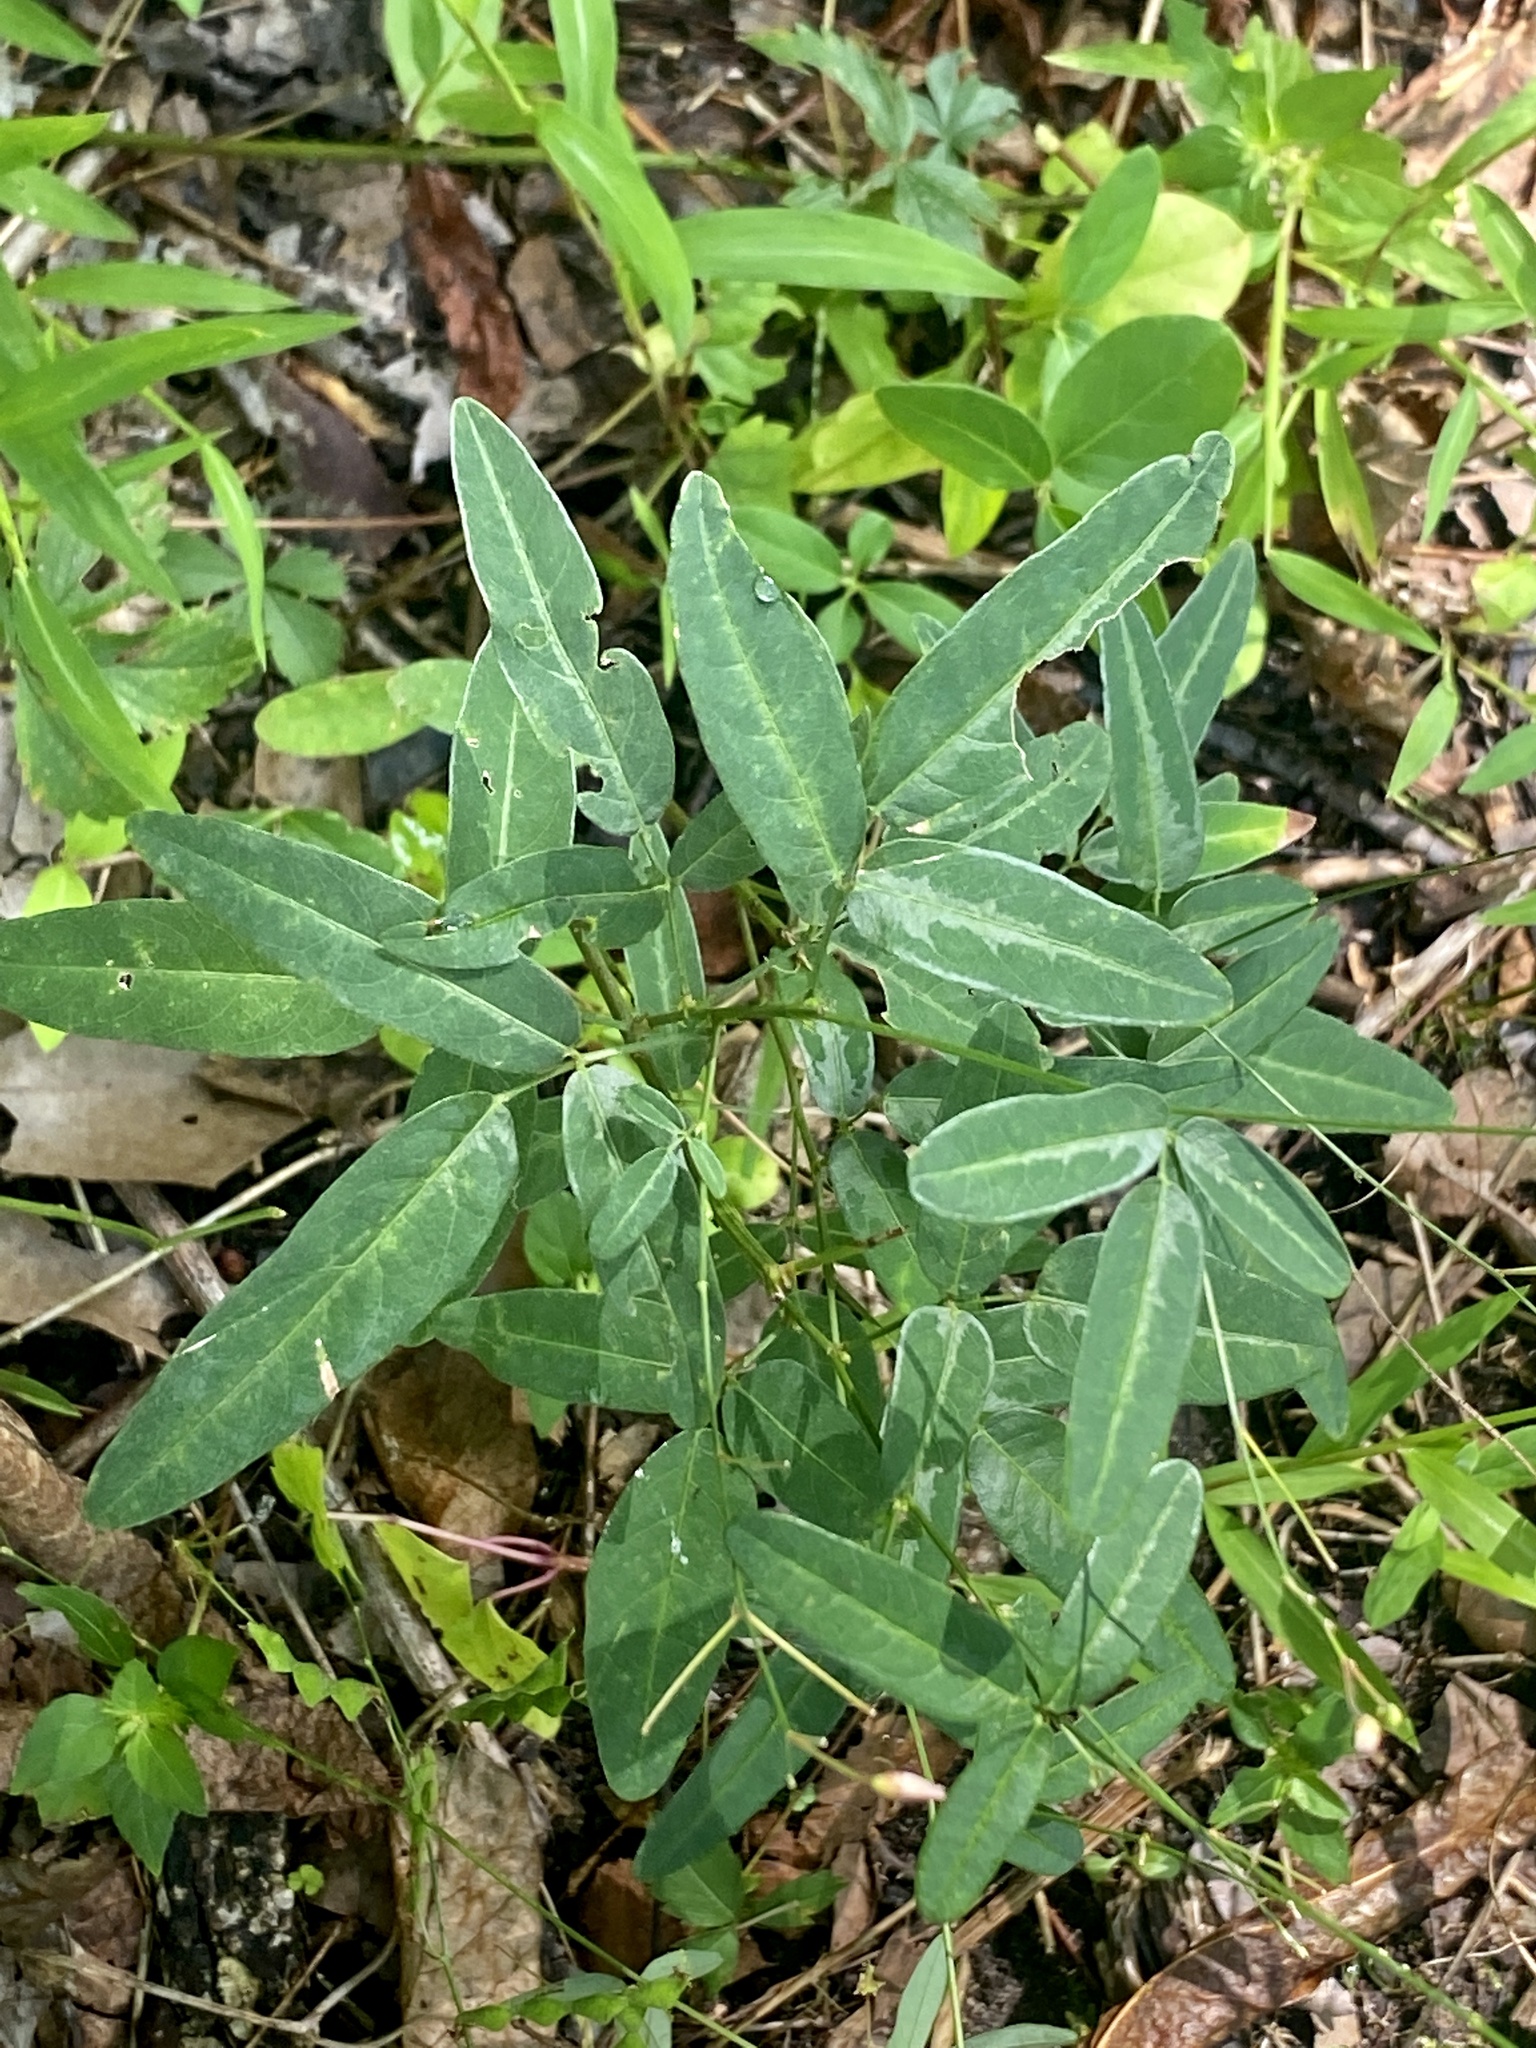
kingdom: Plantae
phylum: Tracheophyta
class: Magnoliopsida
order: Fabales
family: Fabaceae
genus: Desmodium
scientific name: Desmodium paniculatum
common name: Panicled tick-clover
